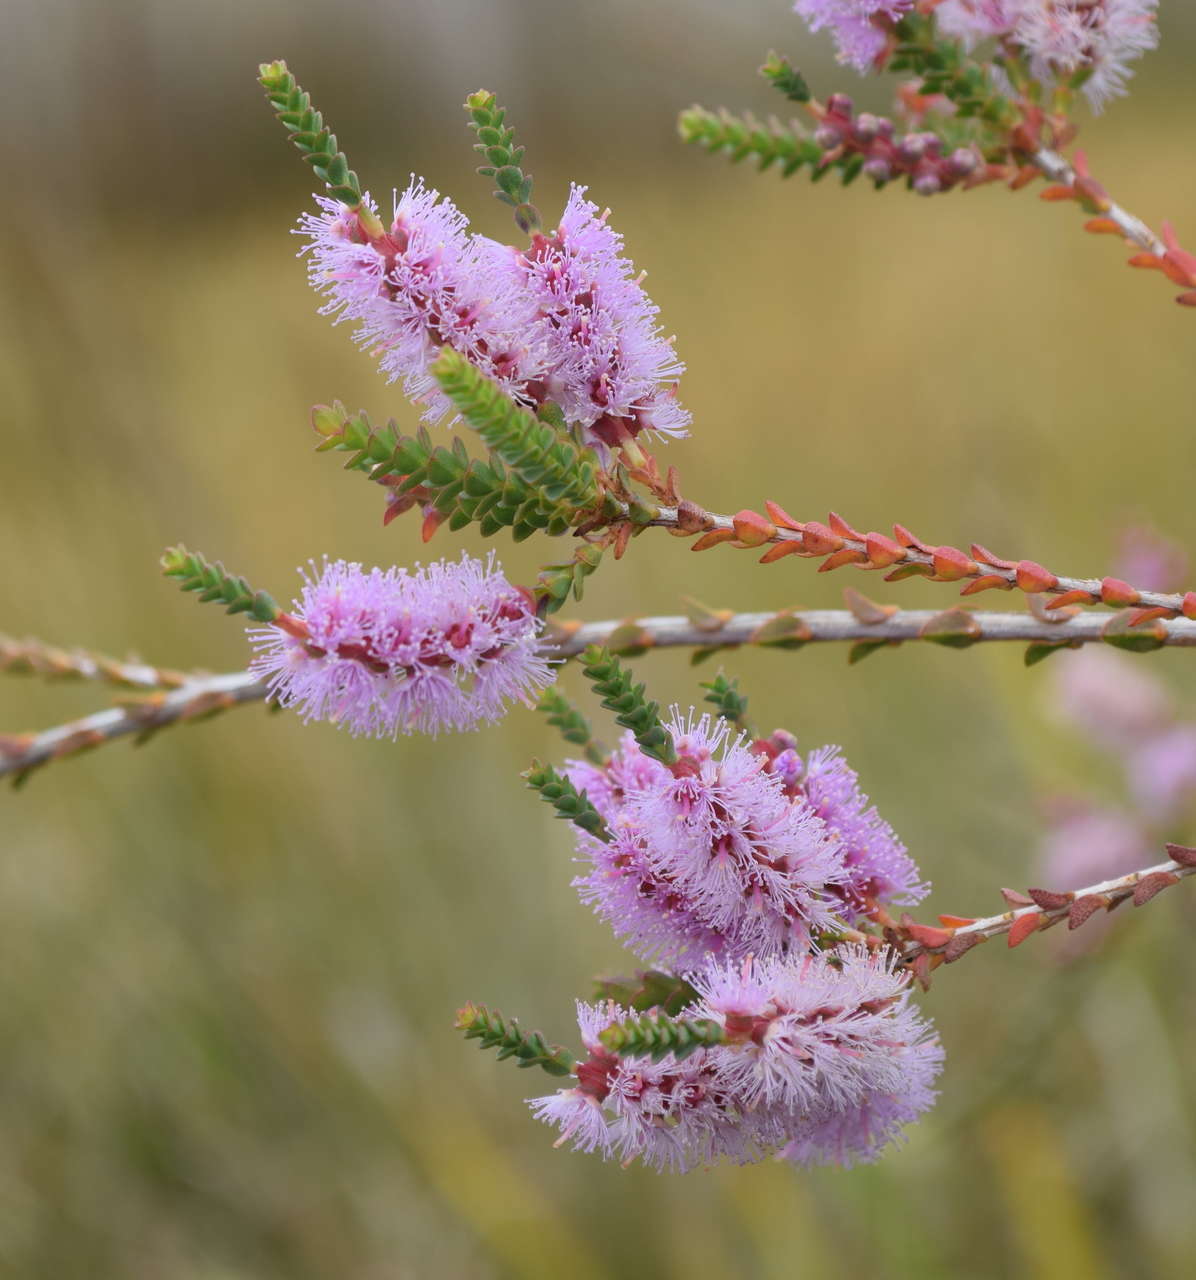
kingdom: Plantae
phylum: Tracheophyta
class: Magnoliopsida
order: Myrtales
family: Myrtaceae
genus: Melaleuca
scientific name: Melaleuca gibbosa
